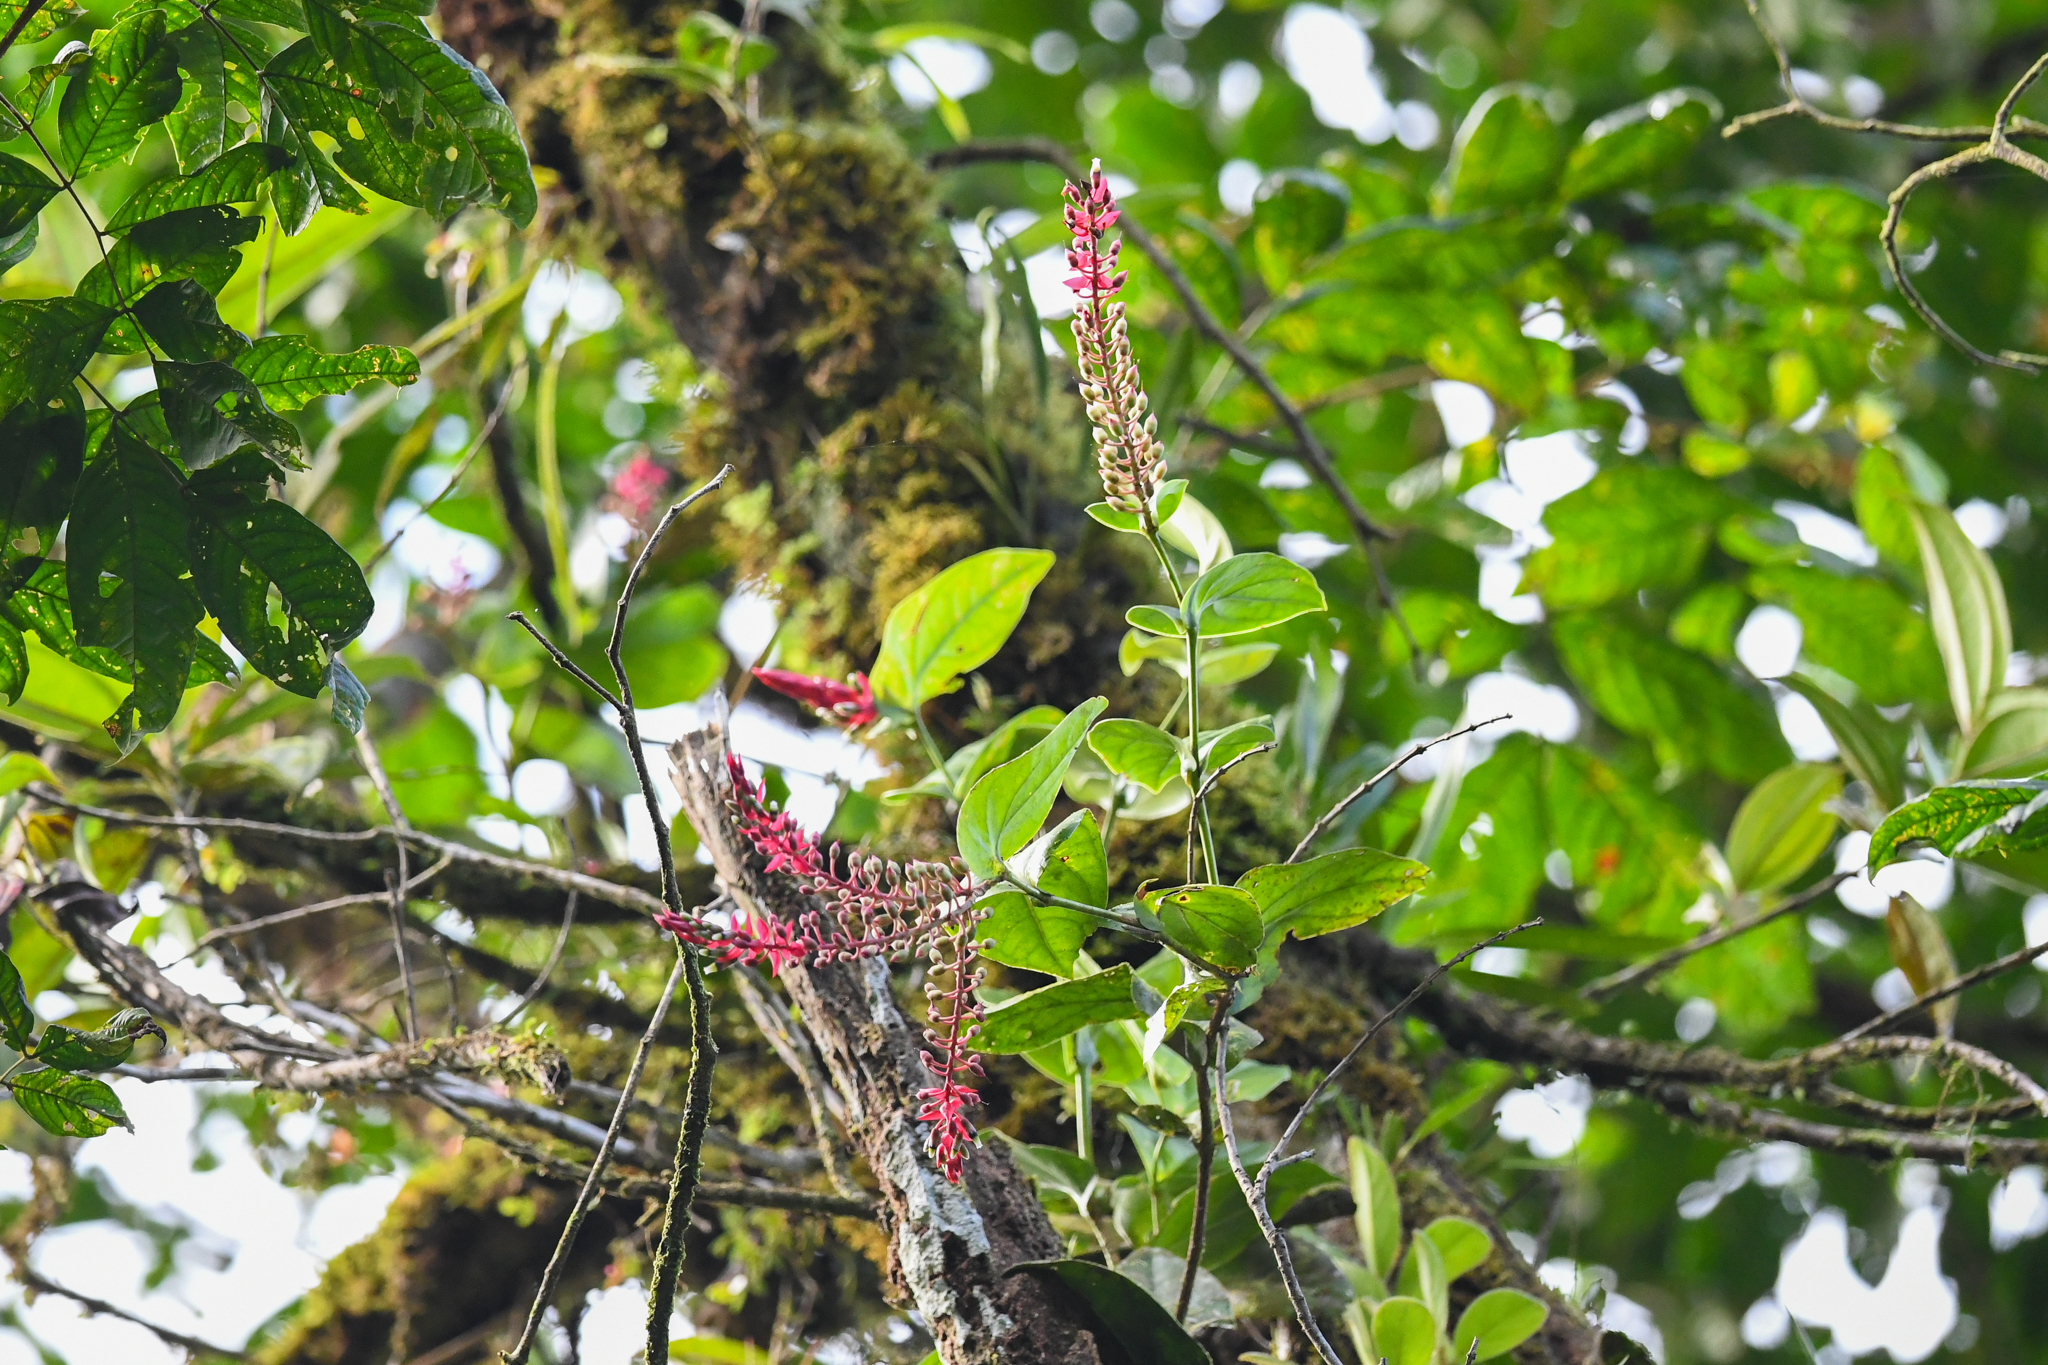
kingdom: Plantae
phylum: Tracheophyta
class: Magnoliopsida
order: Ericales
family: Ericaceae
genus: Cavendishia
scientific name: Cavendishia complectens
